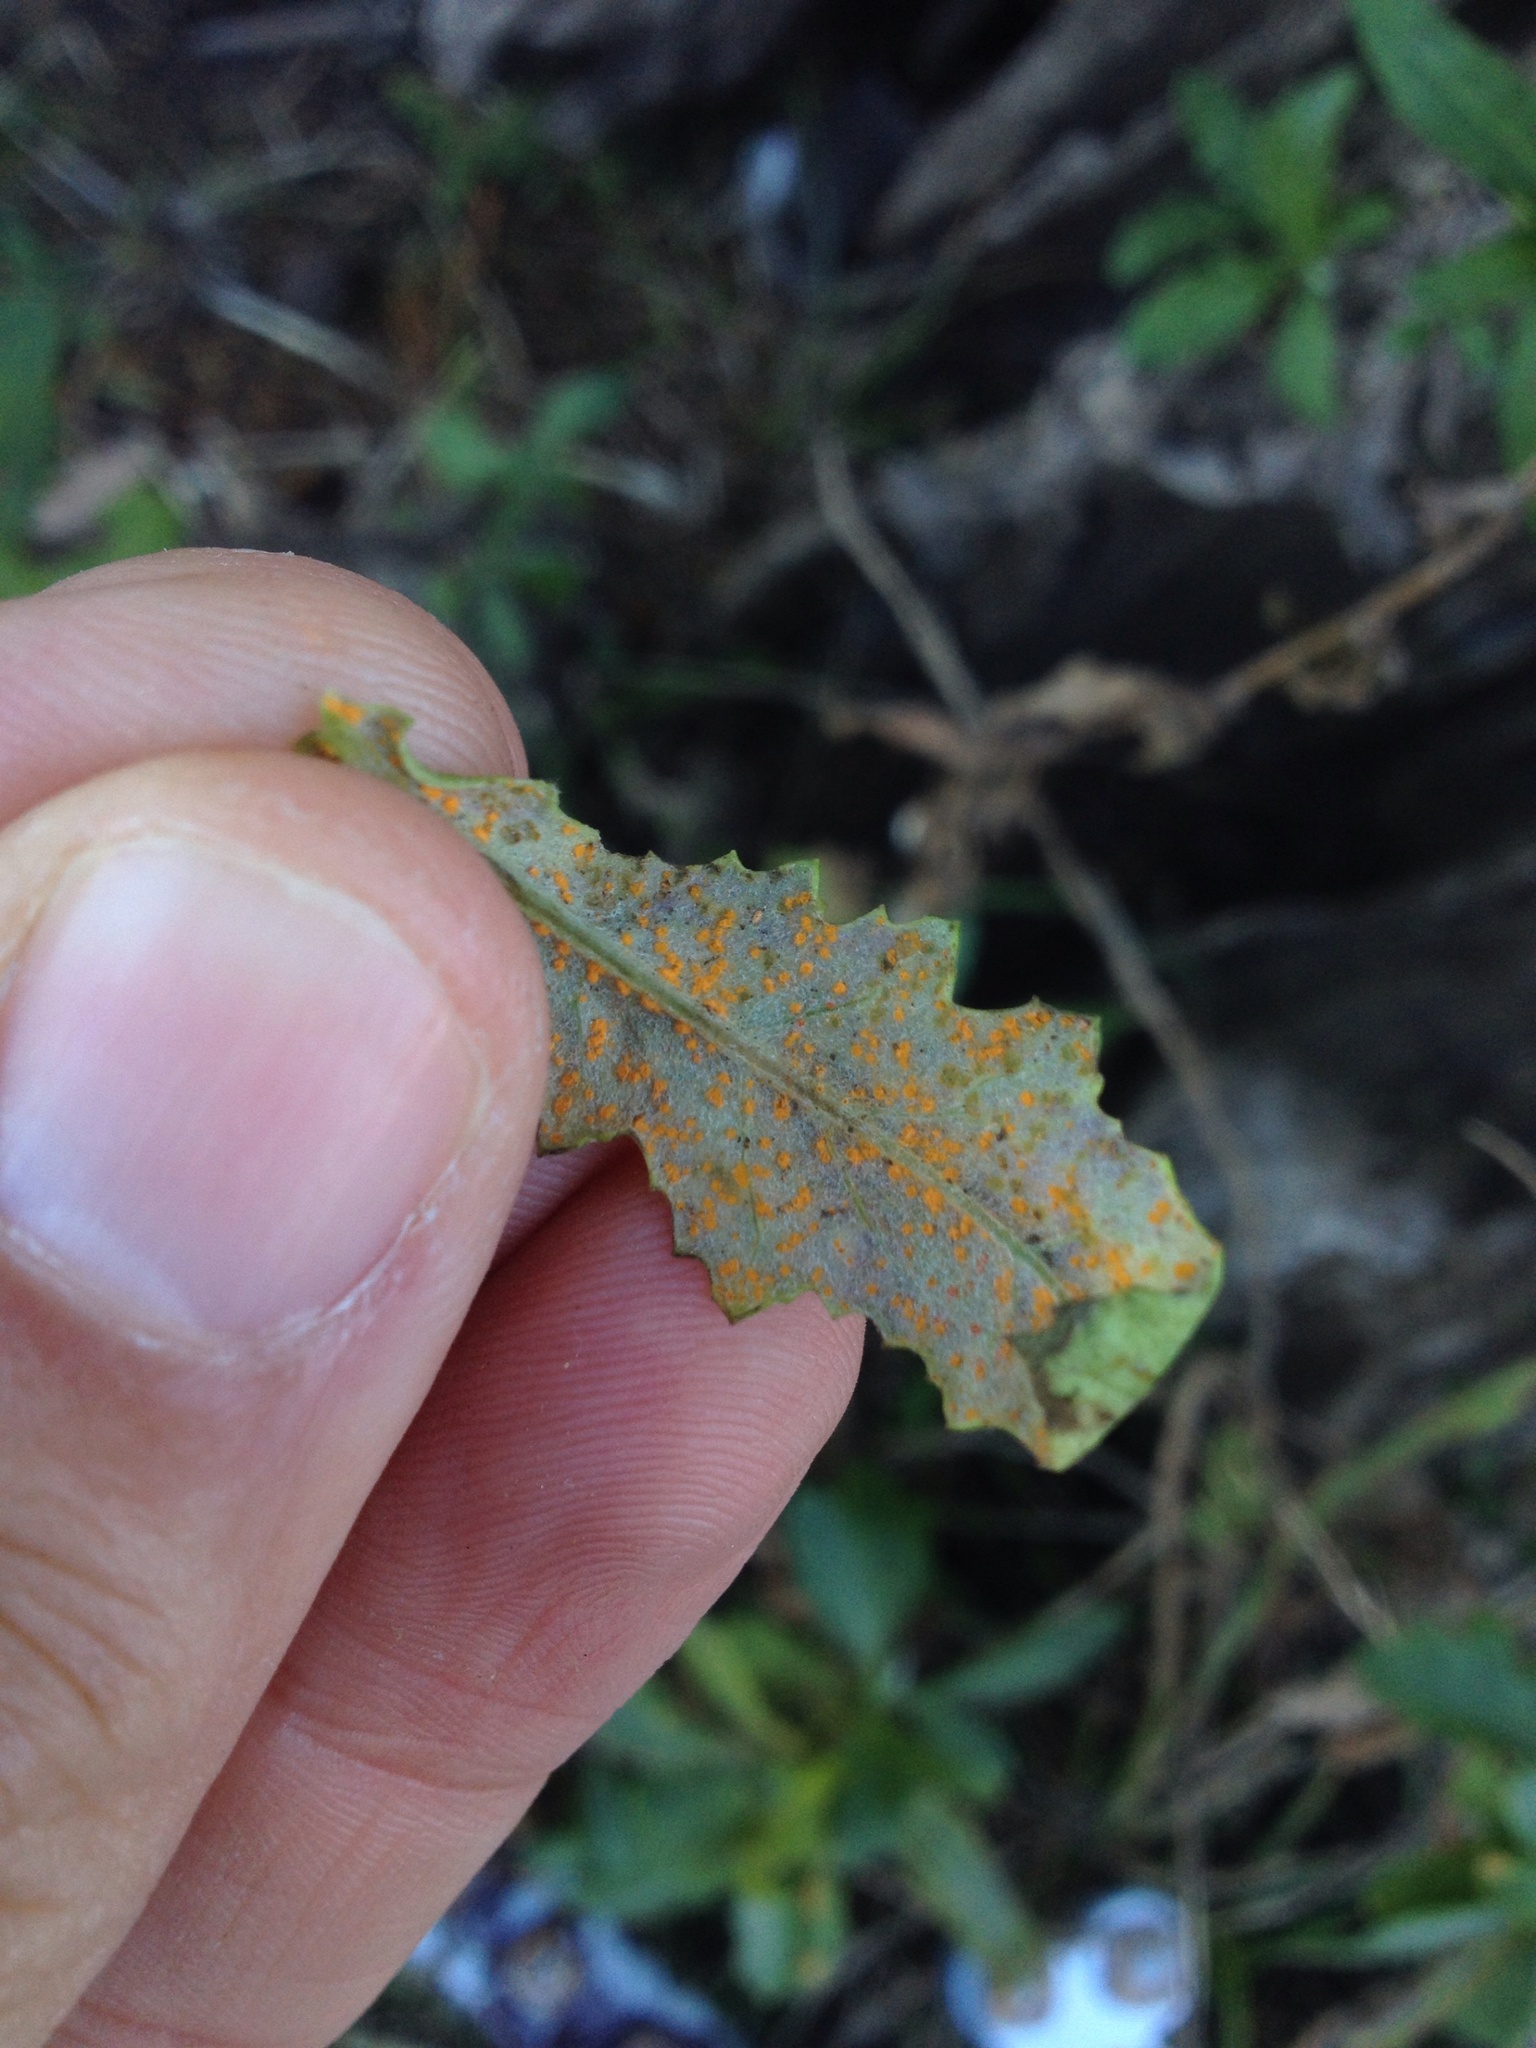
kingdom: Fungi
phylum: Basidiomycota
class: Pucciniomycetes
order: Pucciniales
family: Coleosporiaceae
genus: Coleosporium
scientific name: Coleosporium tussilaginis
